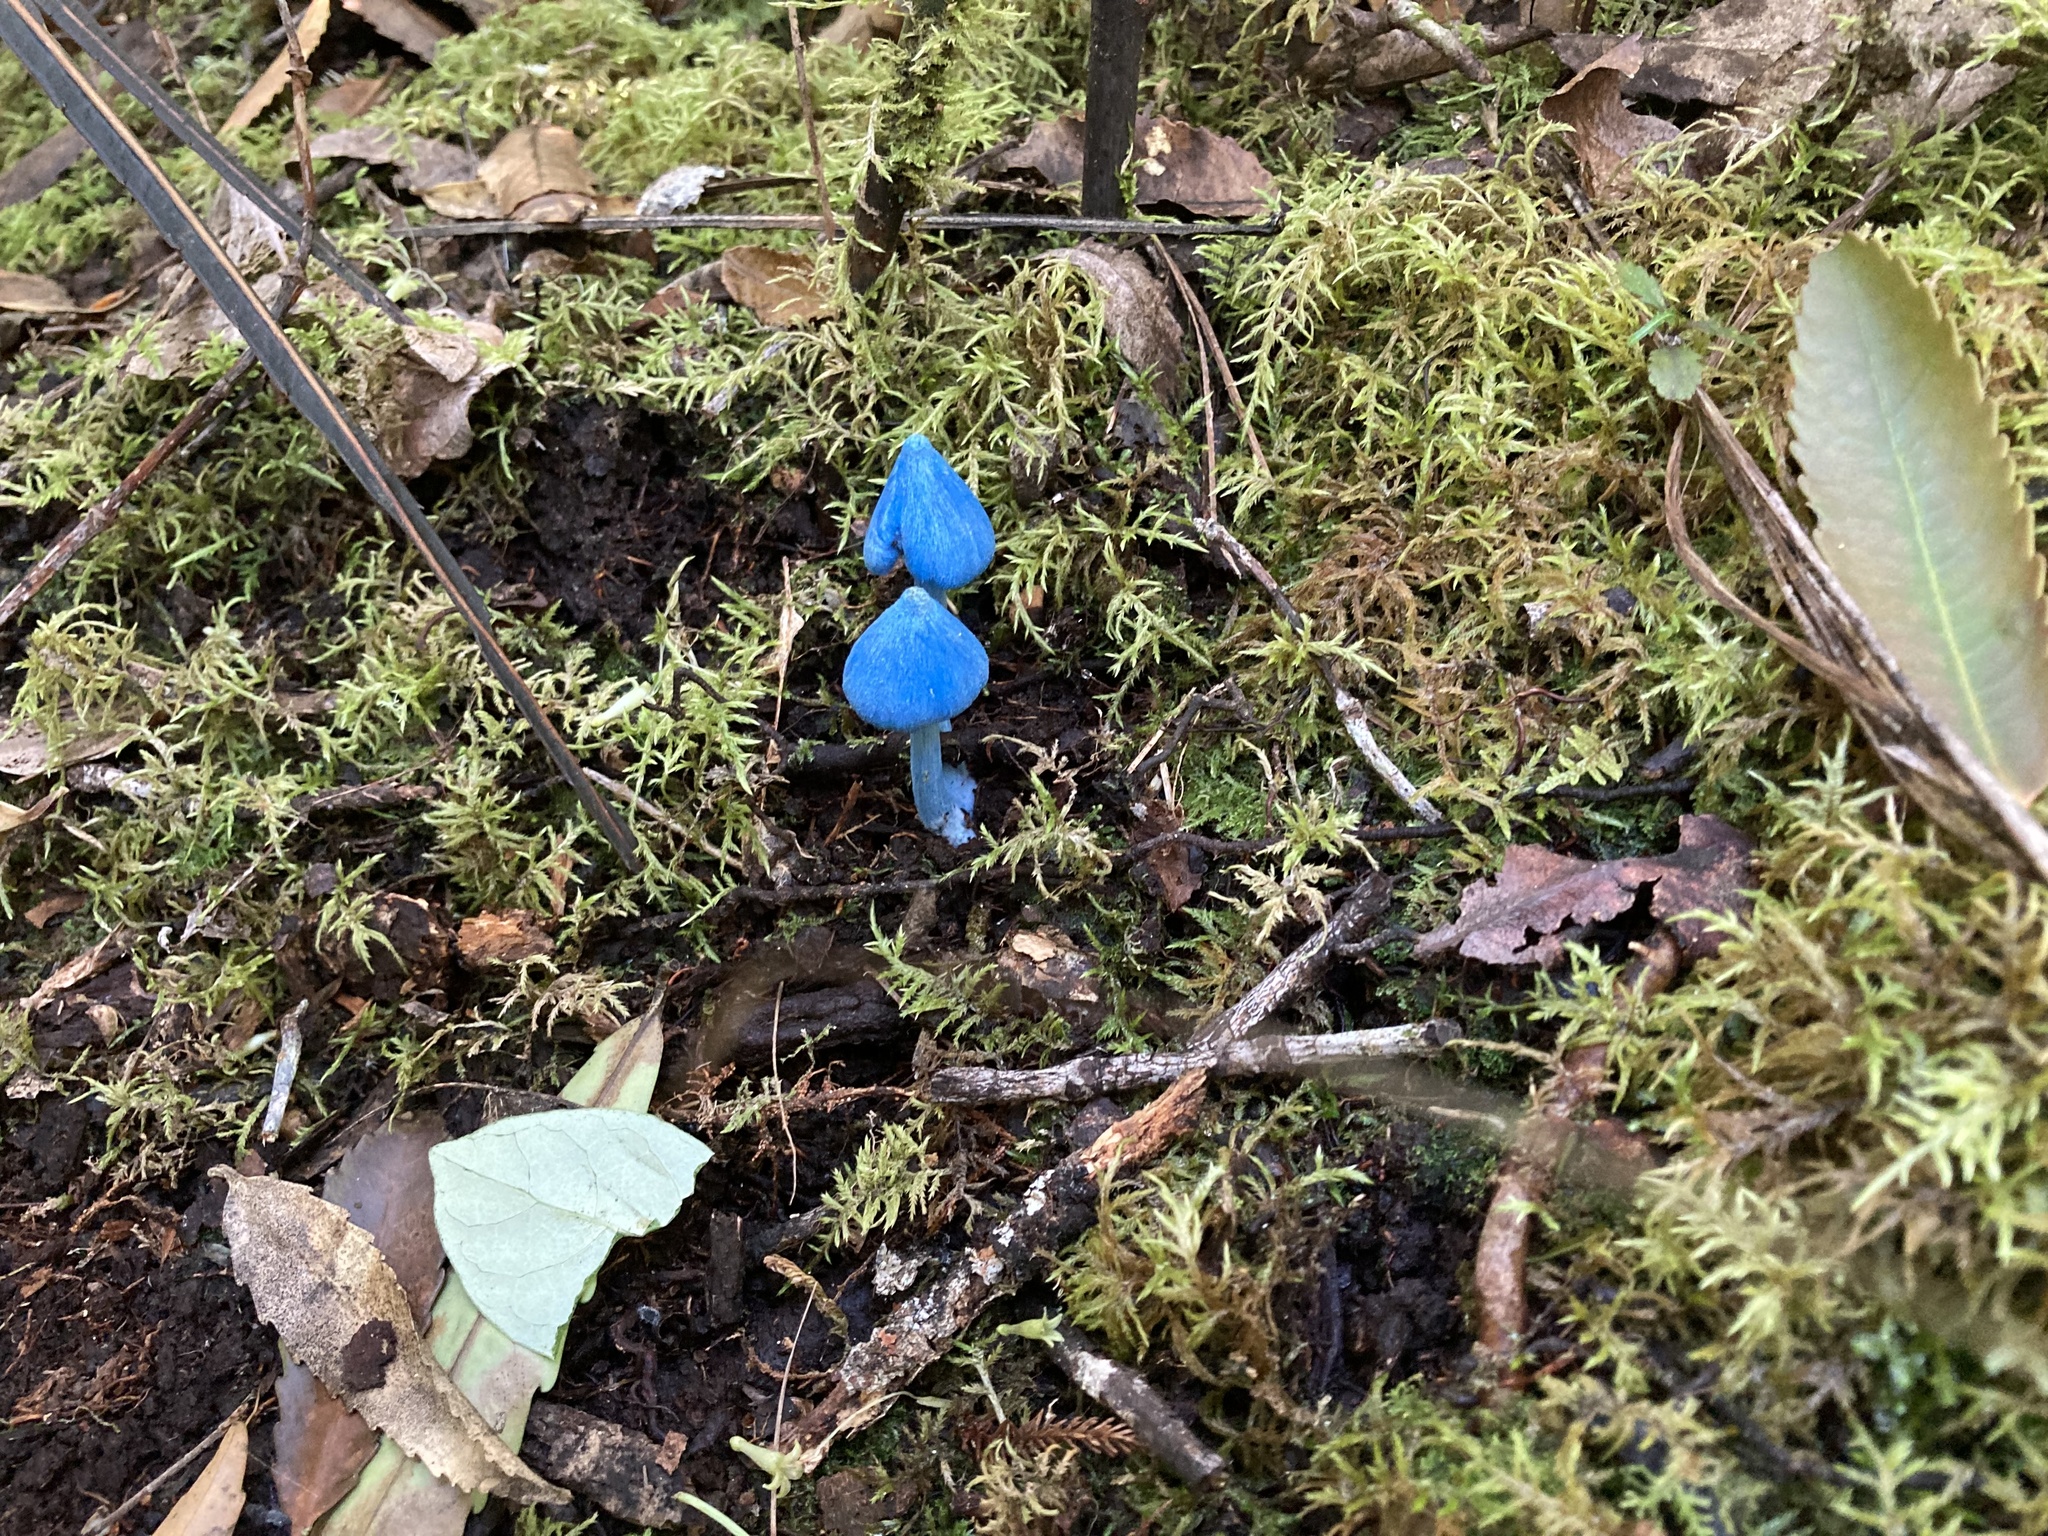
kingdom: Fungi
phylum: Basidiomycota
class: Agaricomycetes
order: Agaricales
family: Entolomataceae
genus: Entoloma
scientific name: Entoloma hochstetteri
